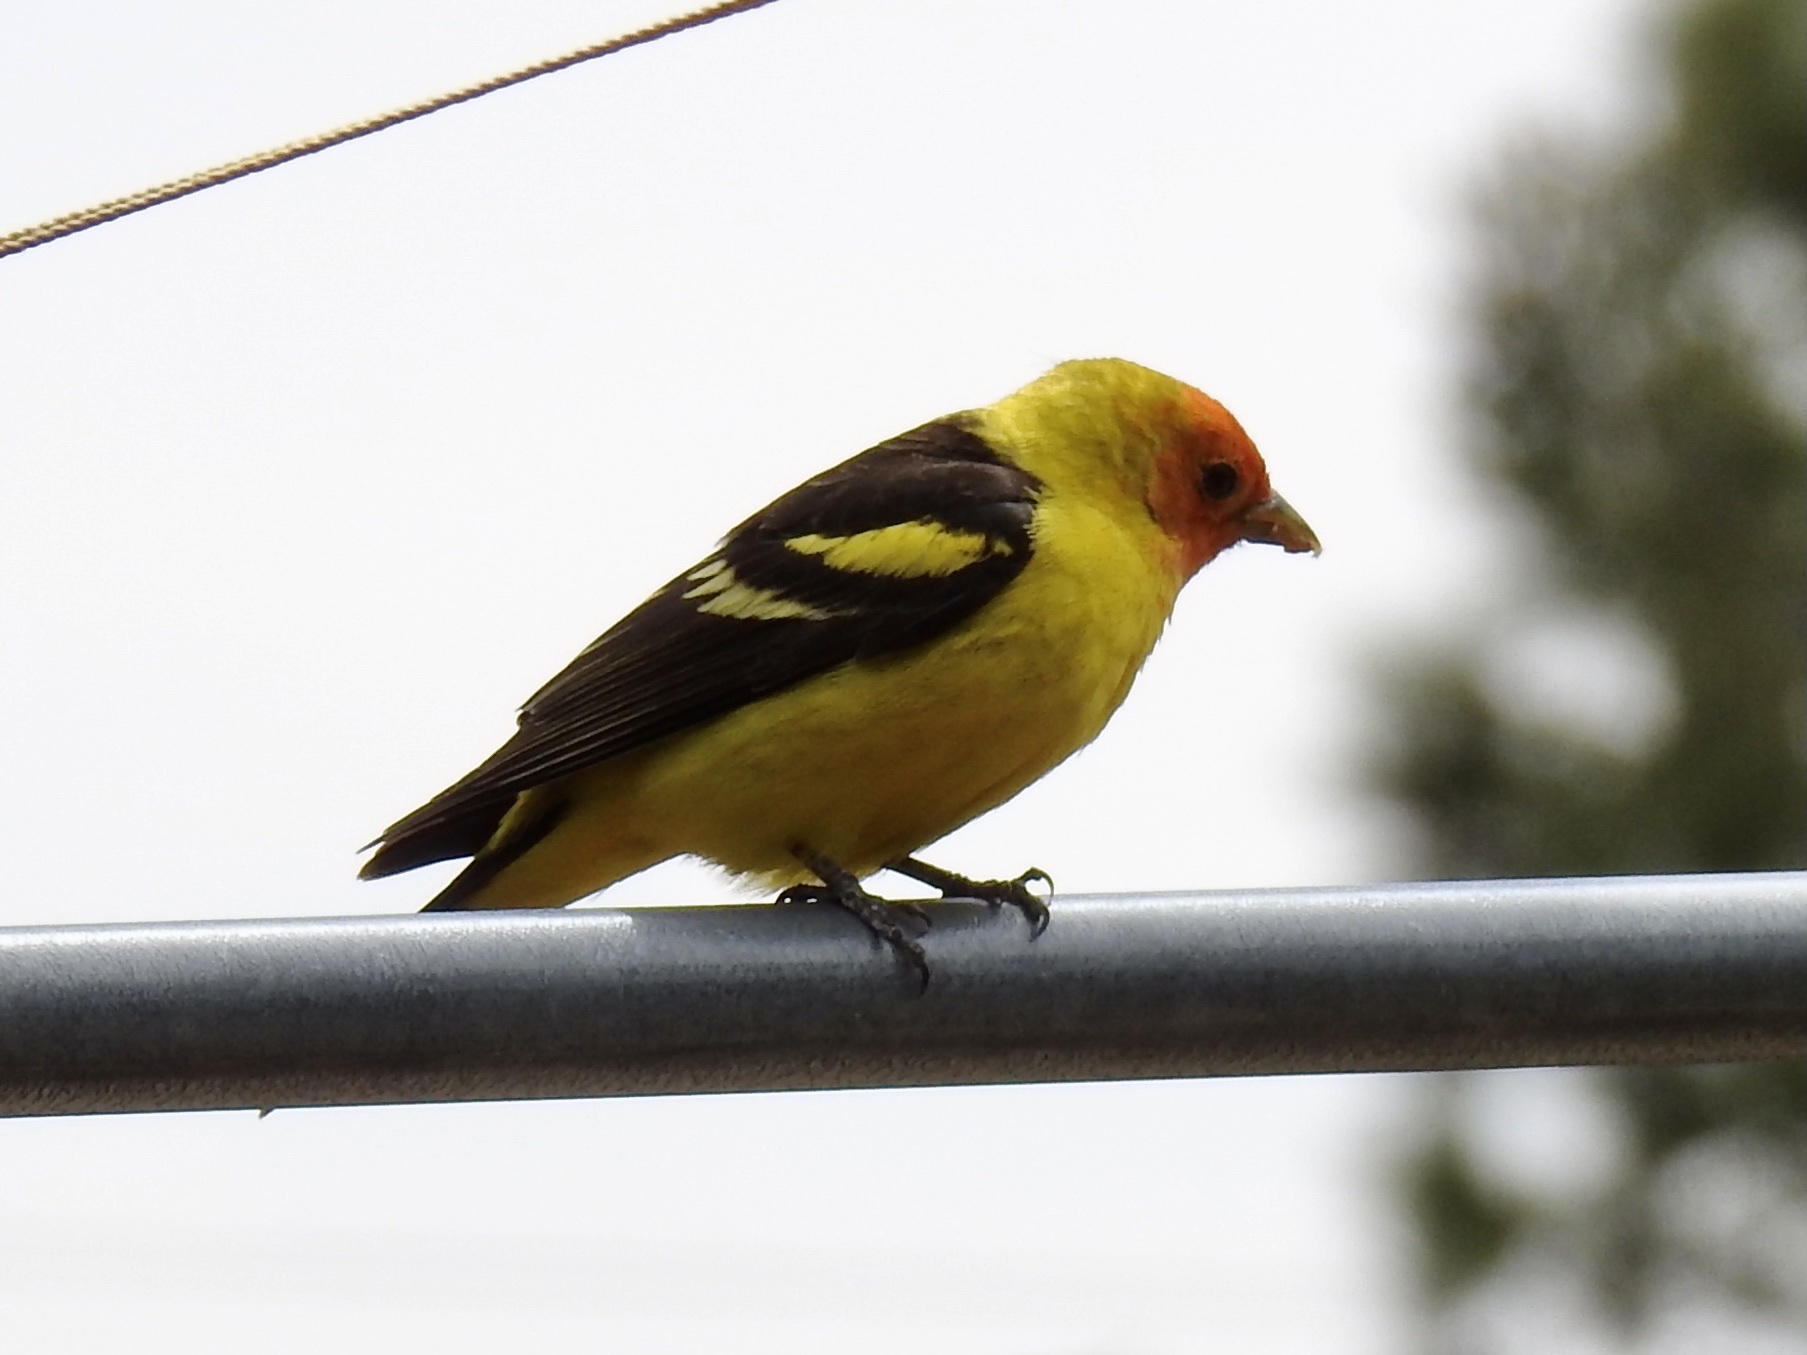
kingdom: Animalia
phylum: Chordata
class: Aves
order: Passeriformes
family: Cardinalidae
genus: Piranga
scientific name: Piranga ludoviciana
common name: Western tanager
